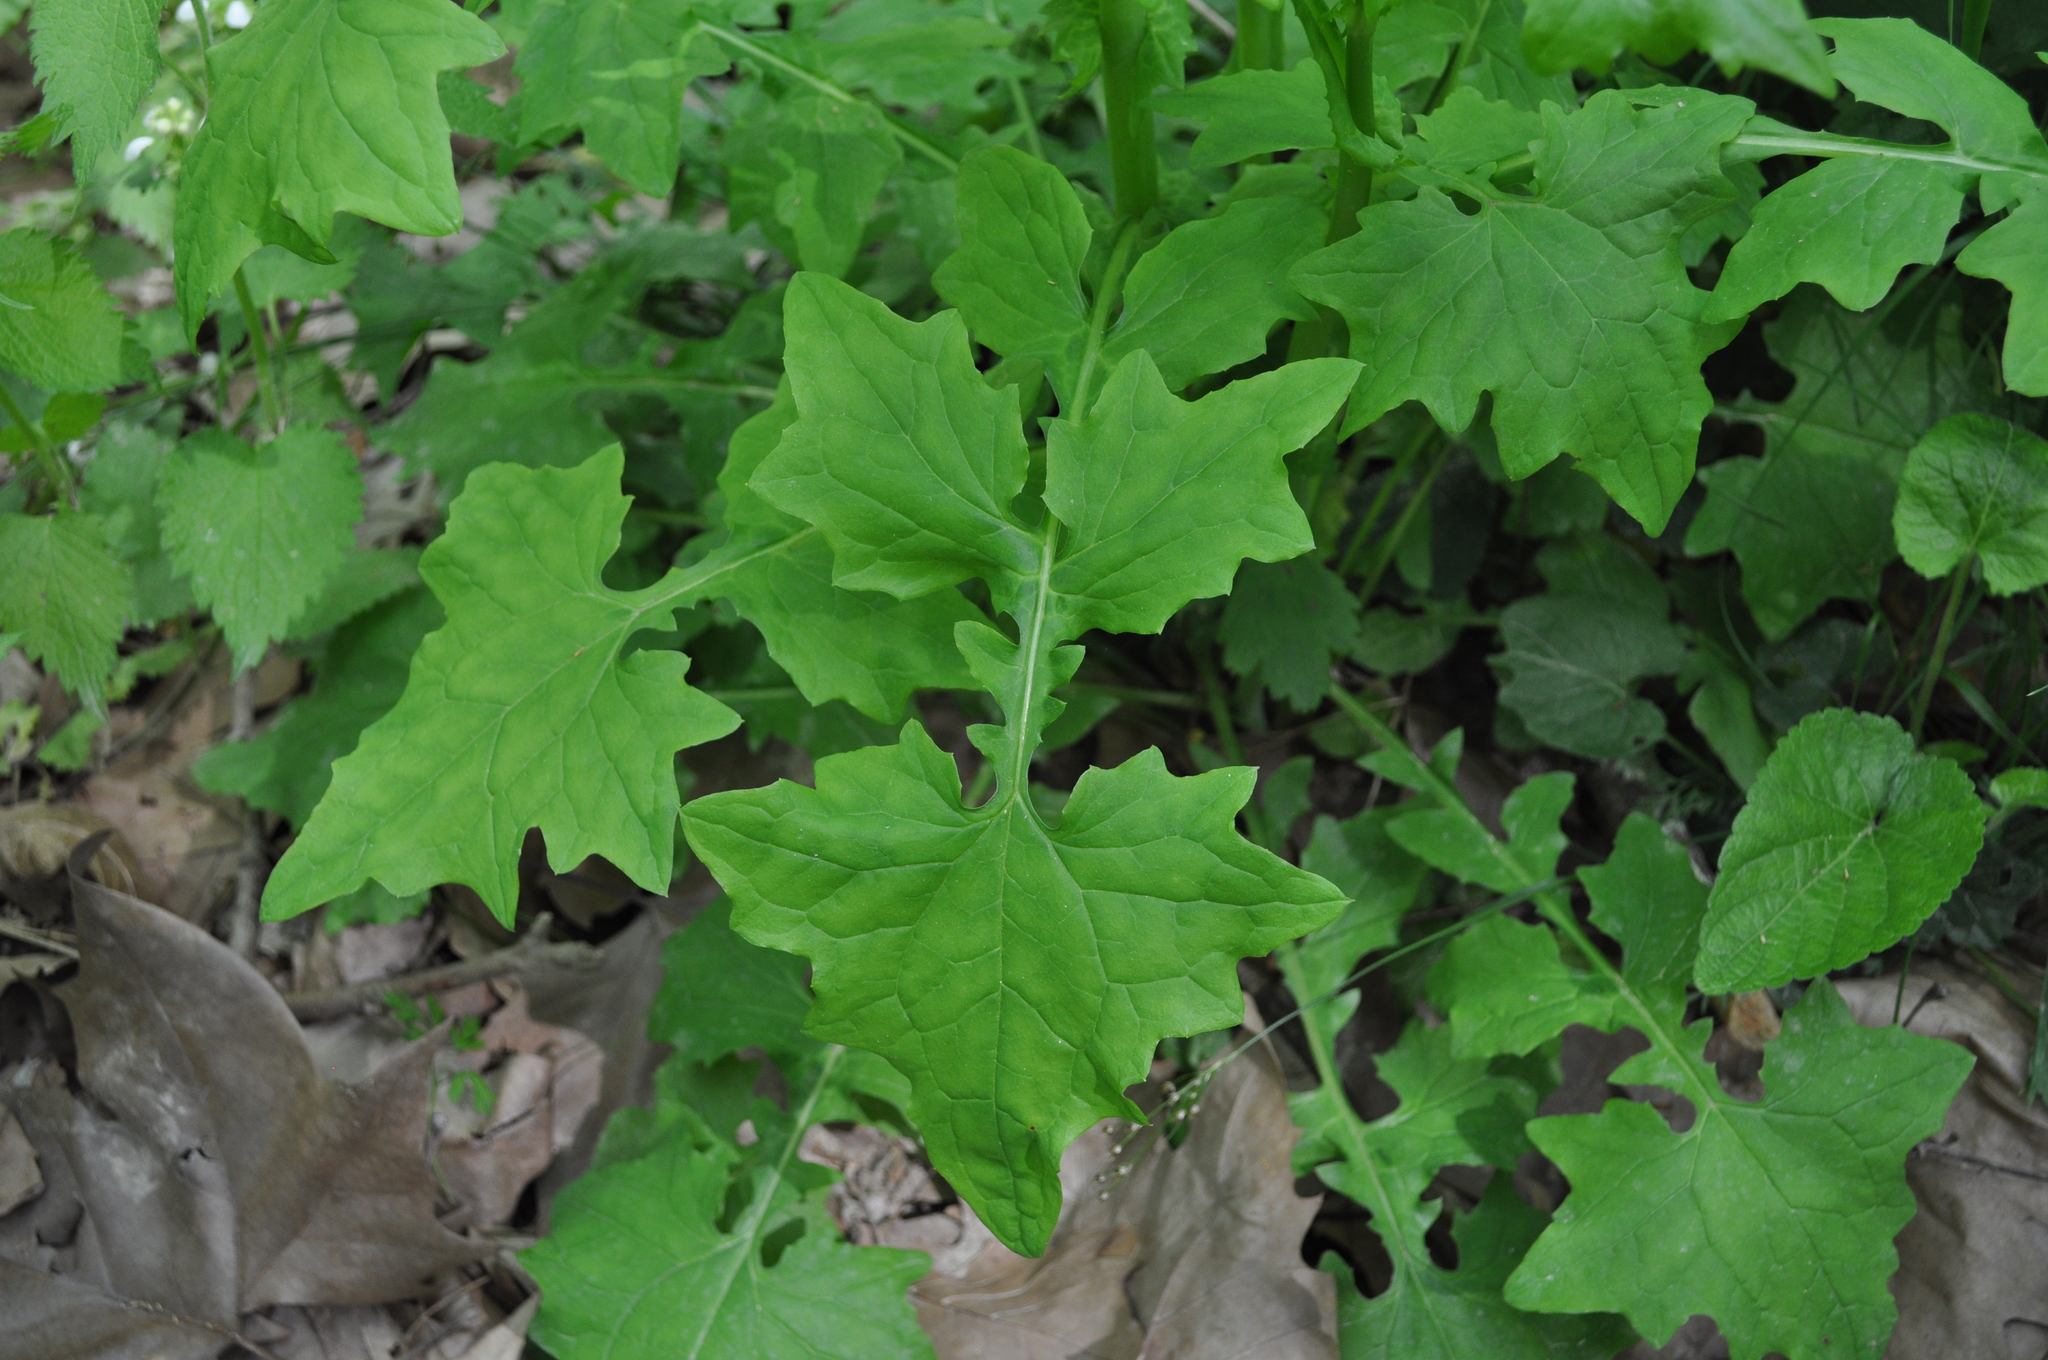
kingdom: Plantae
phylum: Tracheophyta
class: Magnoliopsida
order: Asterales
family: Asteraceae
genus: Mycelis
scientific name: Mycelis muralis
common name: Wall lettuce
